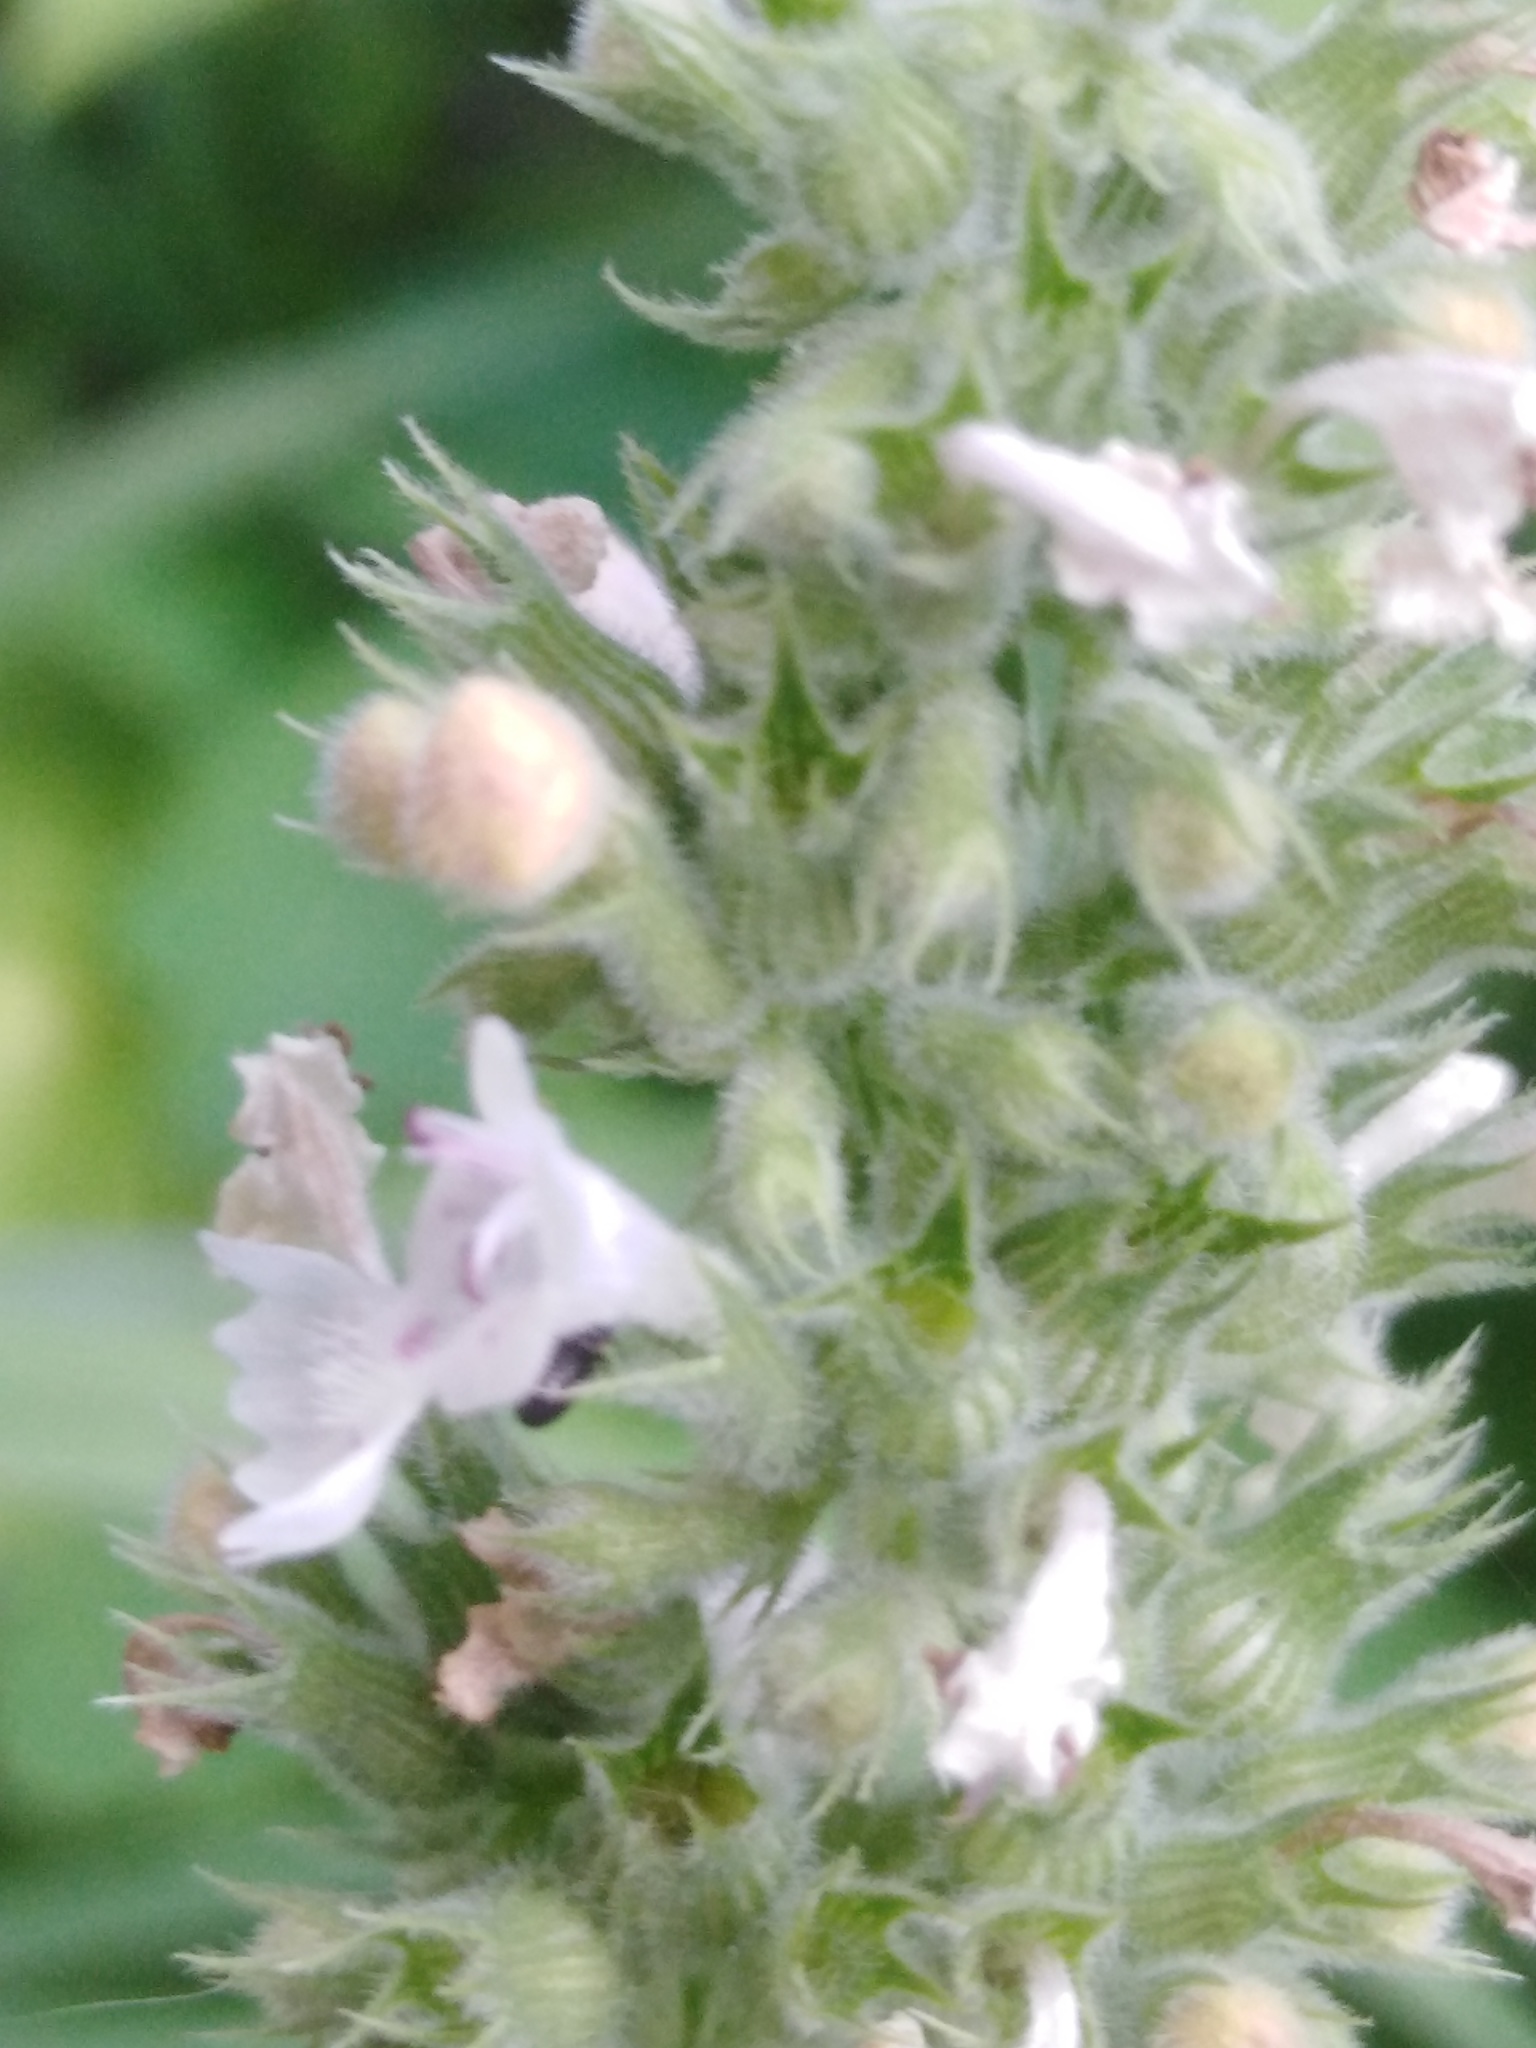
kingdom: Plantae
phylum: Tracheophyta
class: Magnoliopsida
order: Lamiales
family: Lamiaceae
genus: Nepeta
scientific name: Nepeta cataria
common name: Catnip
